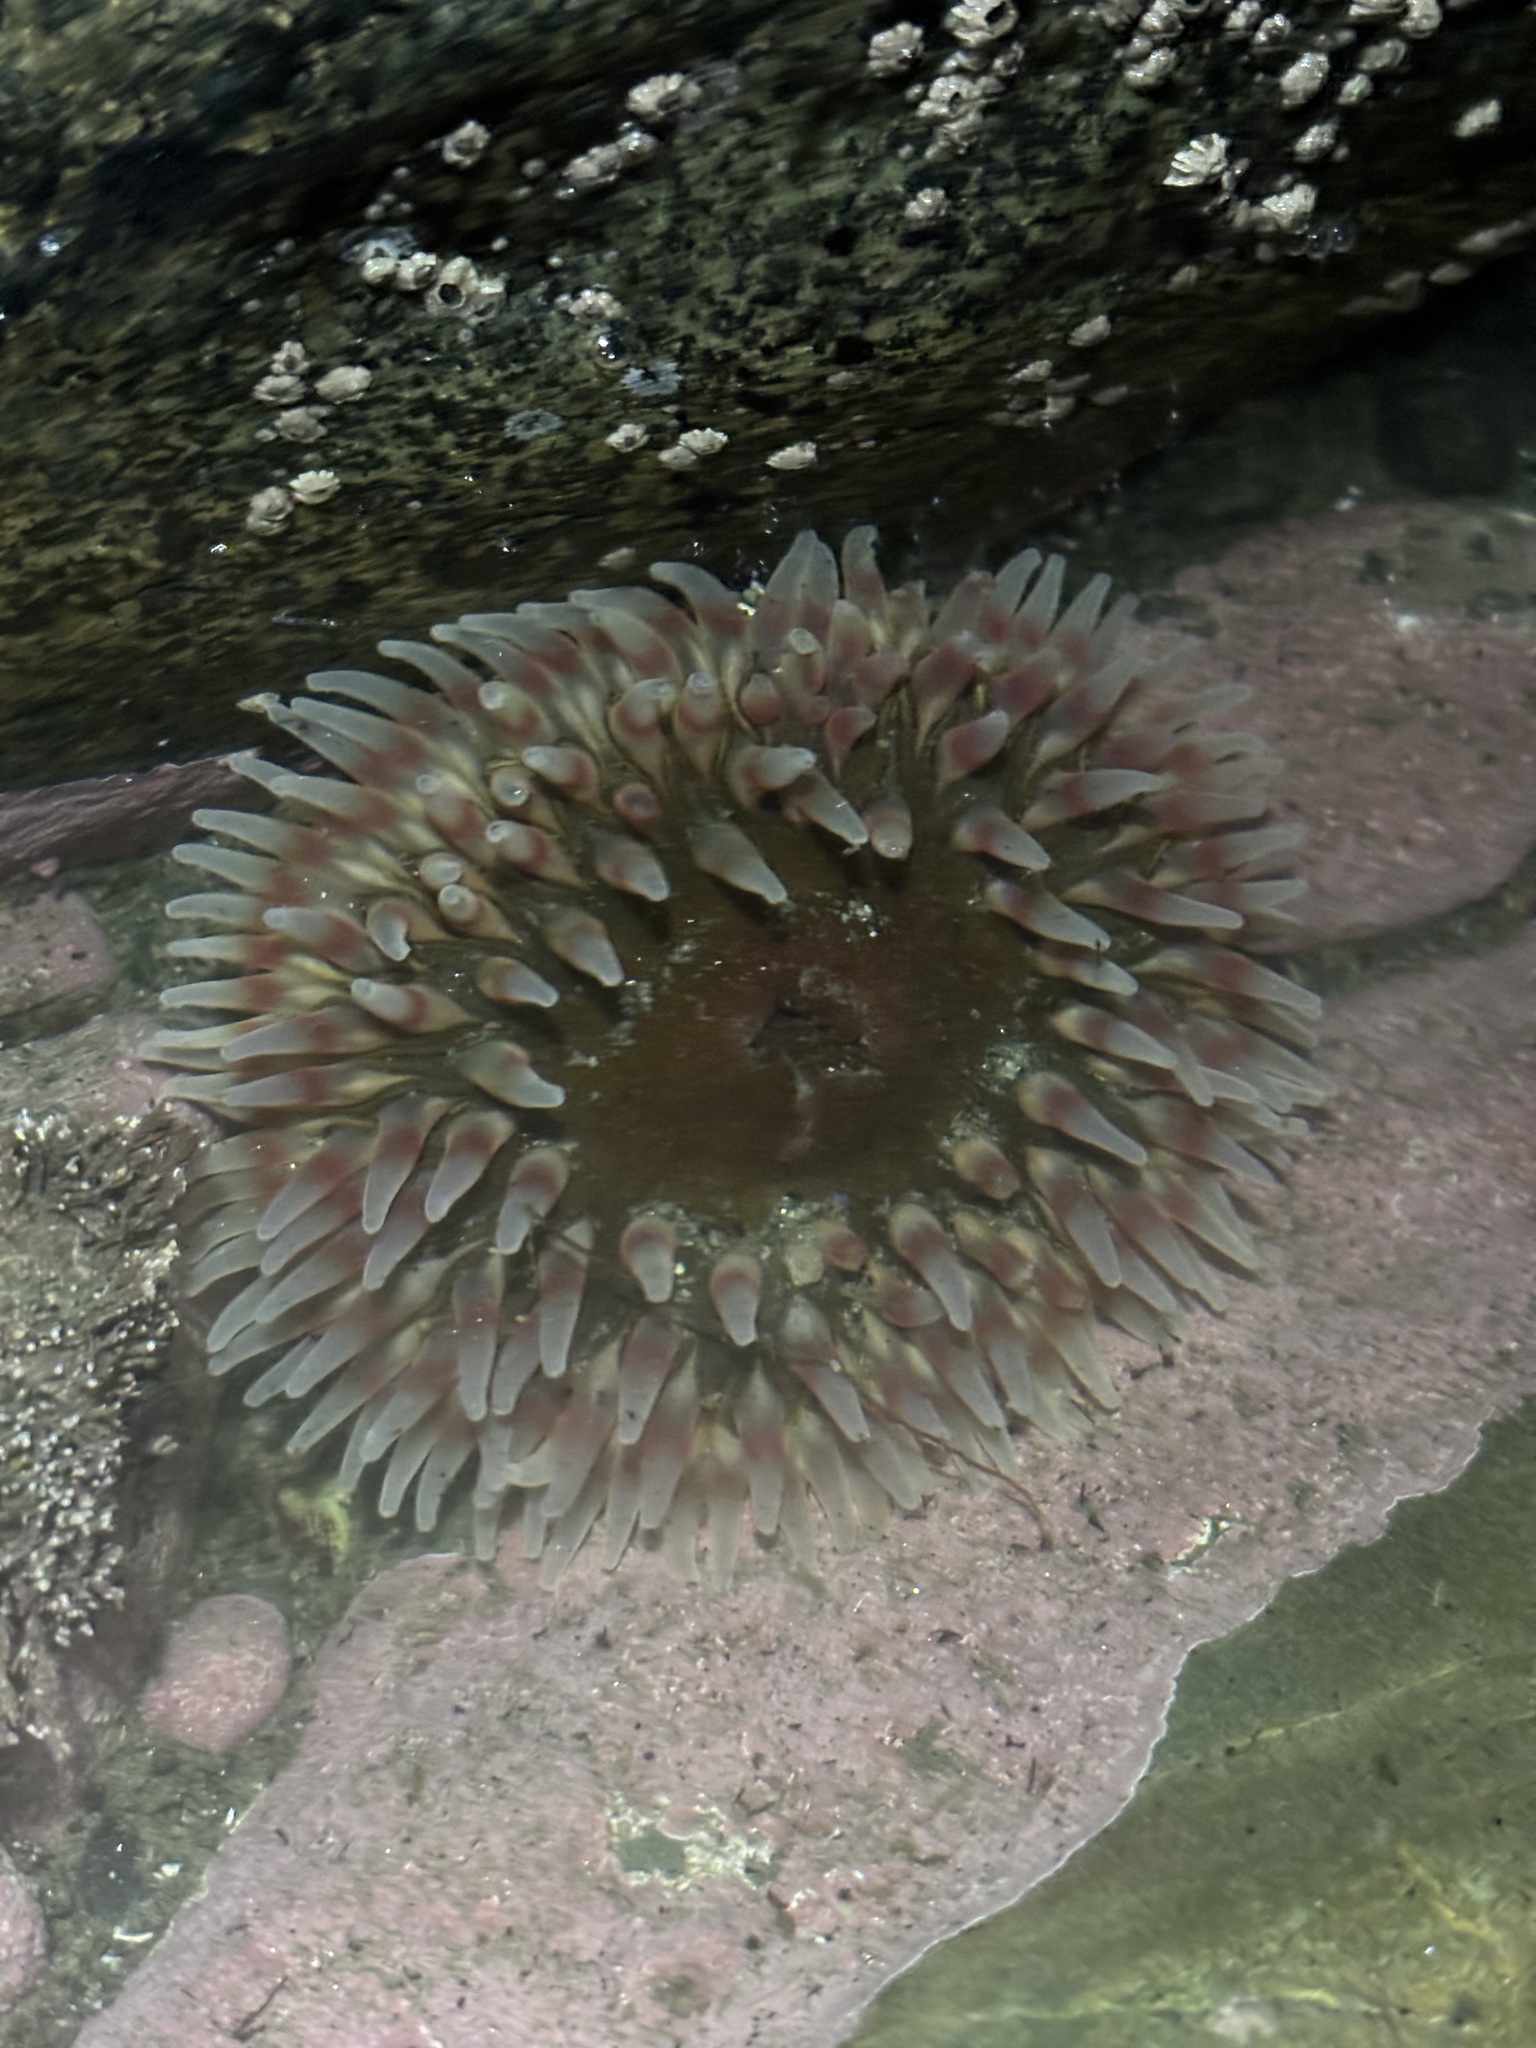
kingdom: Animalia
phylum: Cnidaria
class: Anthozoa
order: Actiniaria
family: Actiniidae
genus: Urticina
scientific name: Urticina clandestina
